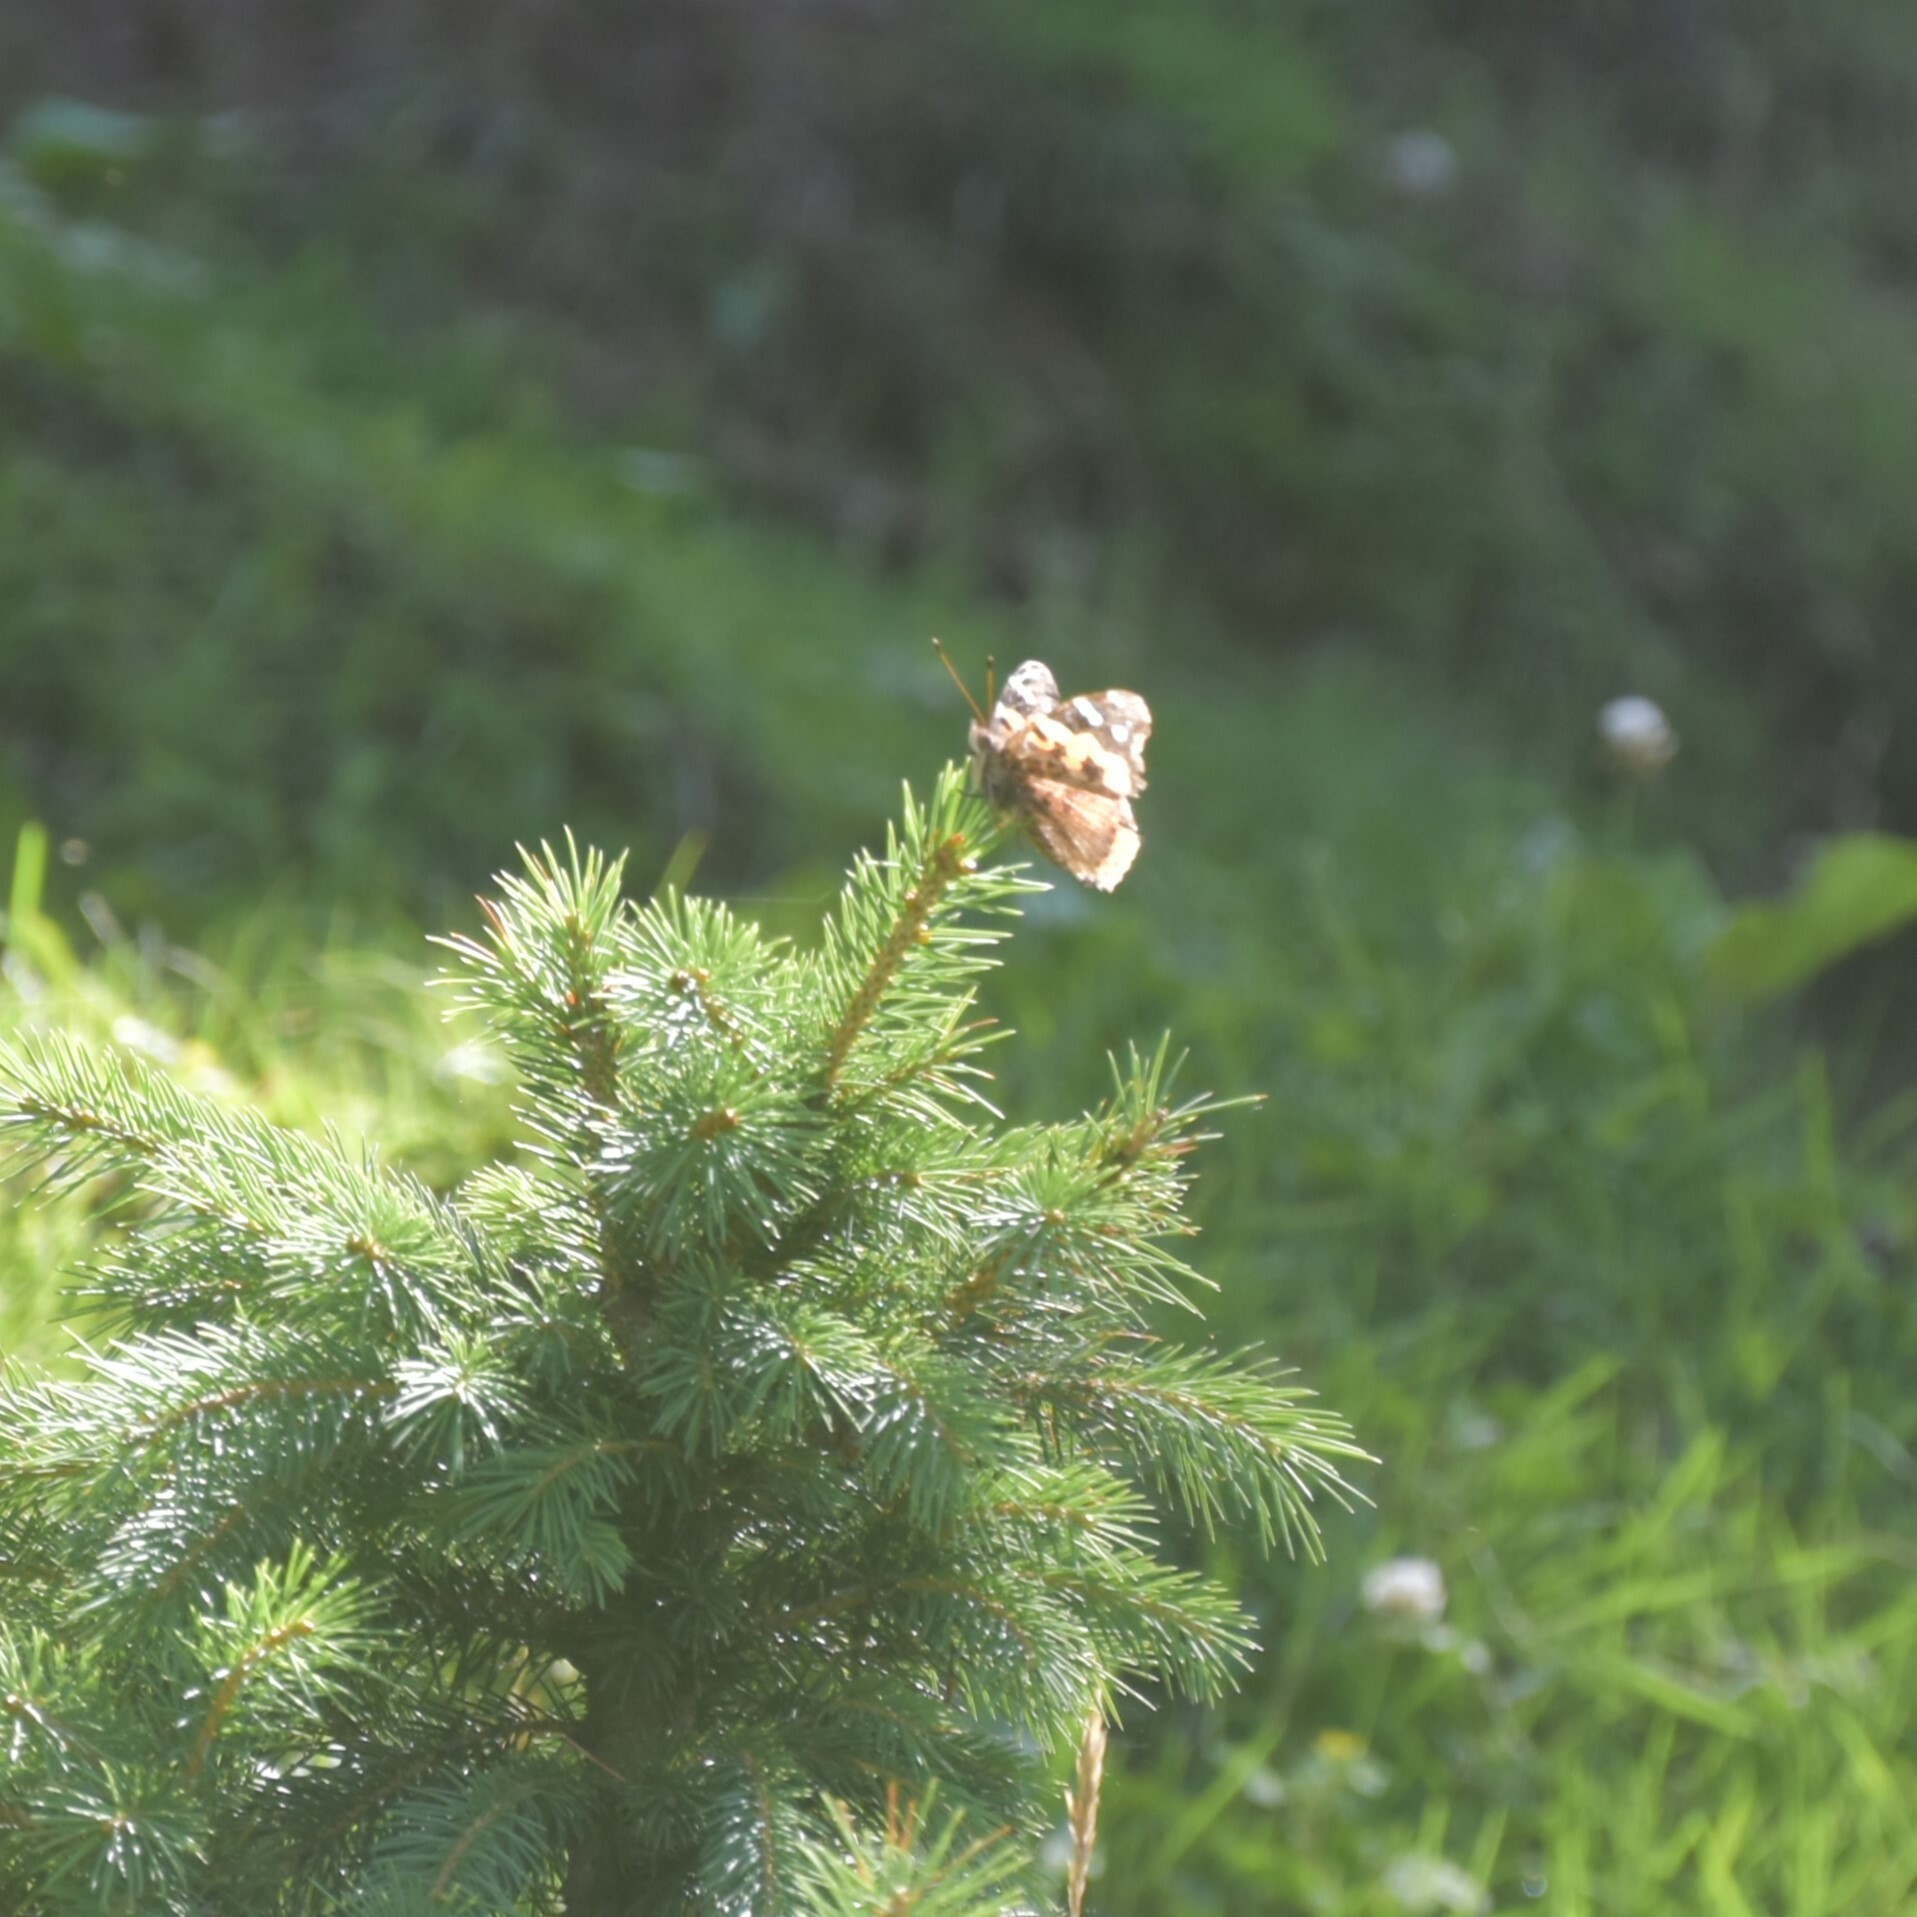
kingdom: Animalia
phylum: Arthropoda
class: Insecta
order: Lepidoptera
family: Nymphalidae
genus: Vanessa
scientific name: Vanessa indica
